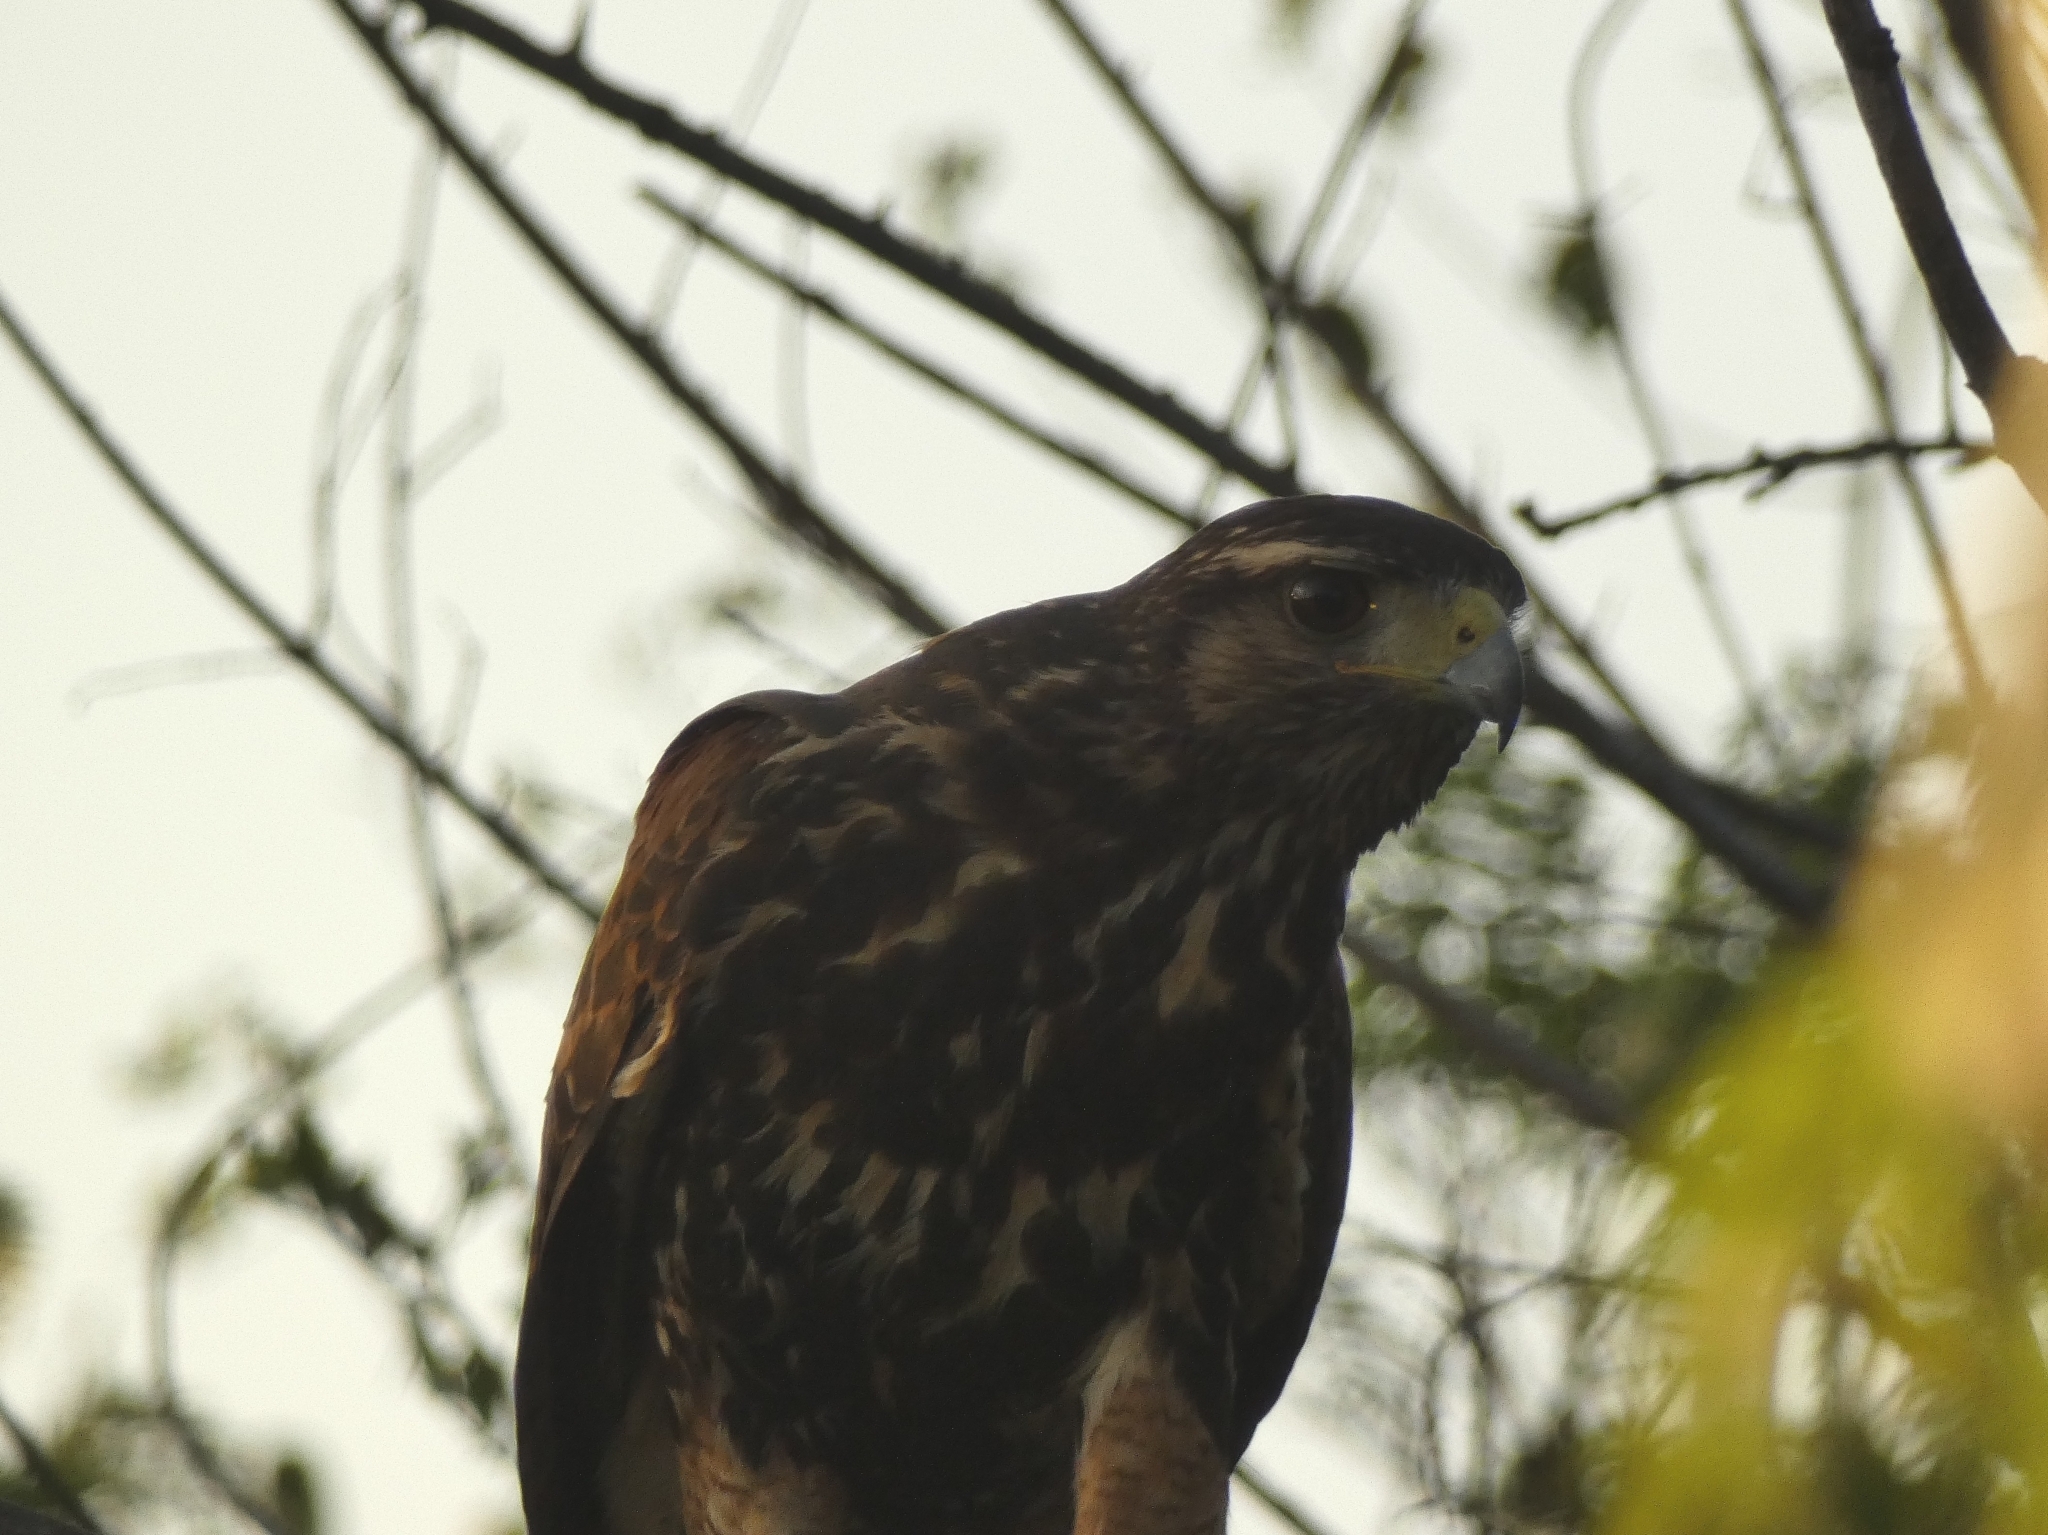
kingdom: Animalia
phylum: Chordata
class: Aves
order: Accipitriformes
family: Accipitridae
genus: Parabuteo
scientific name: Parabuteo unicinctus
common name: Harris's hawk
